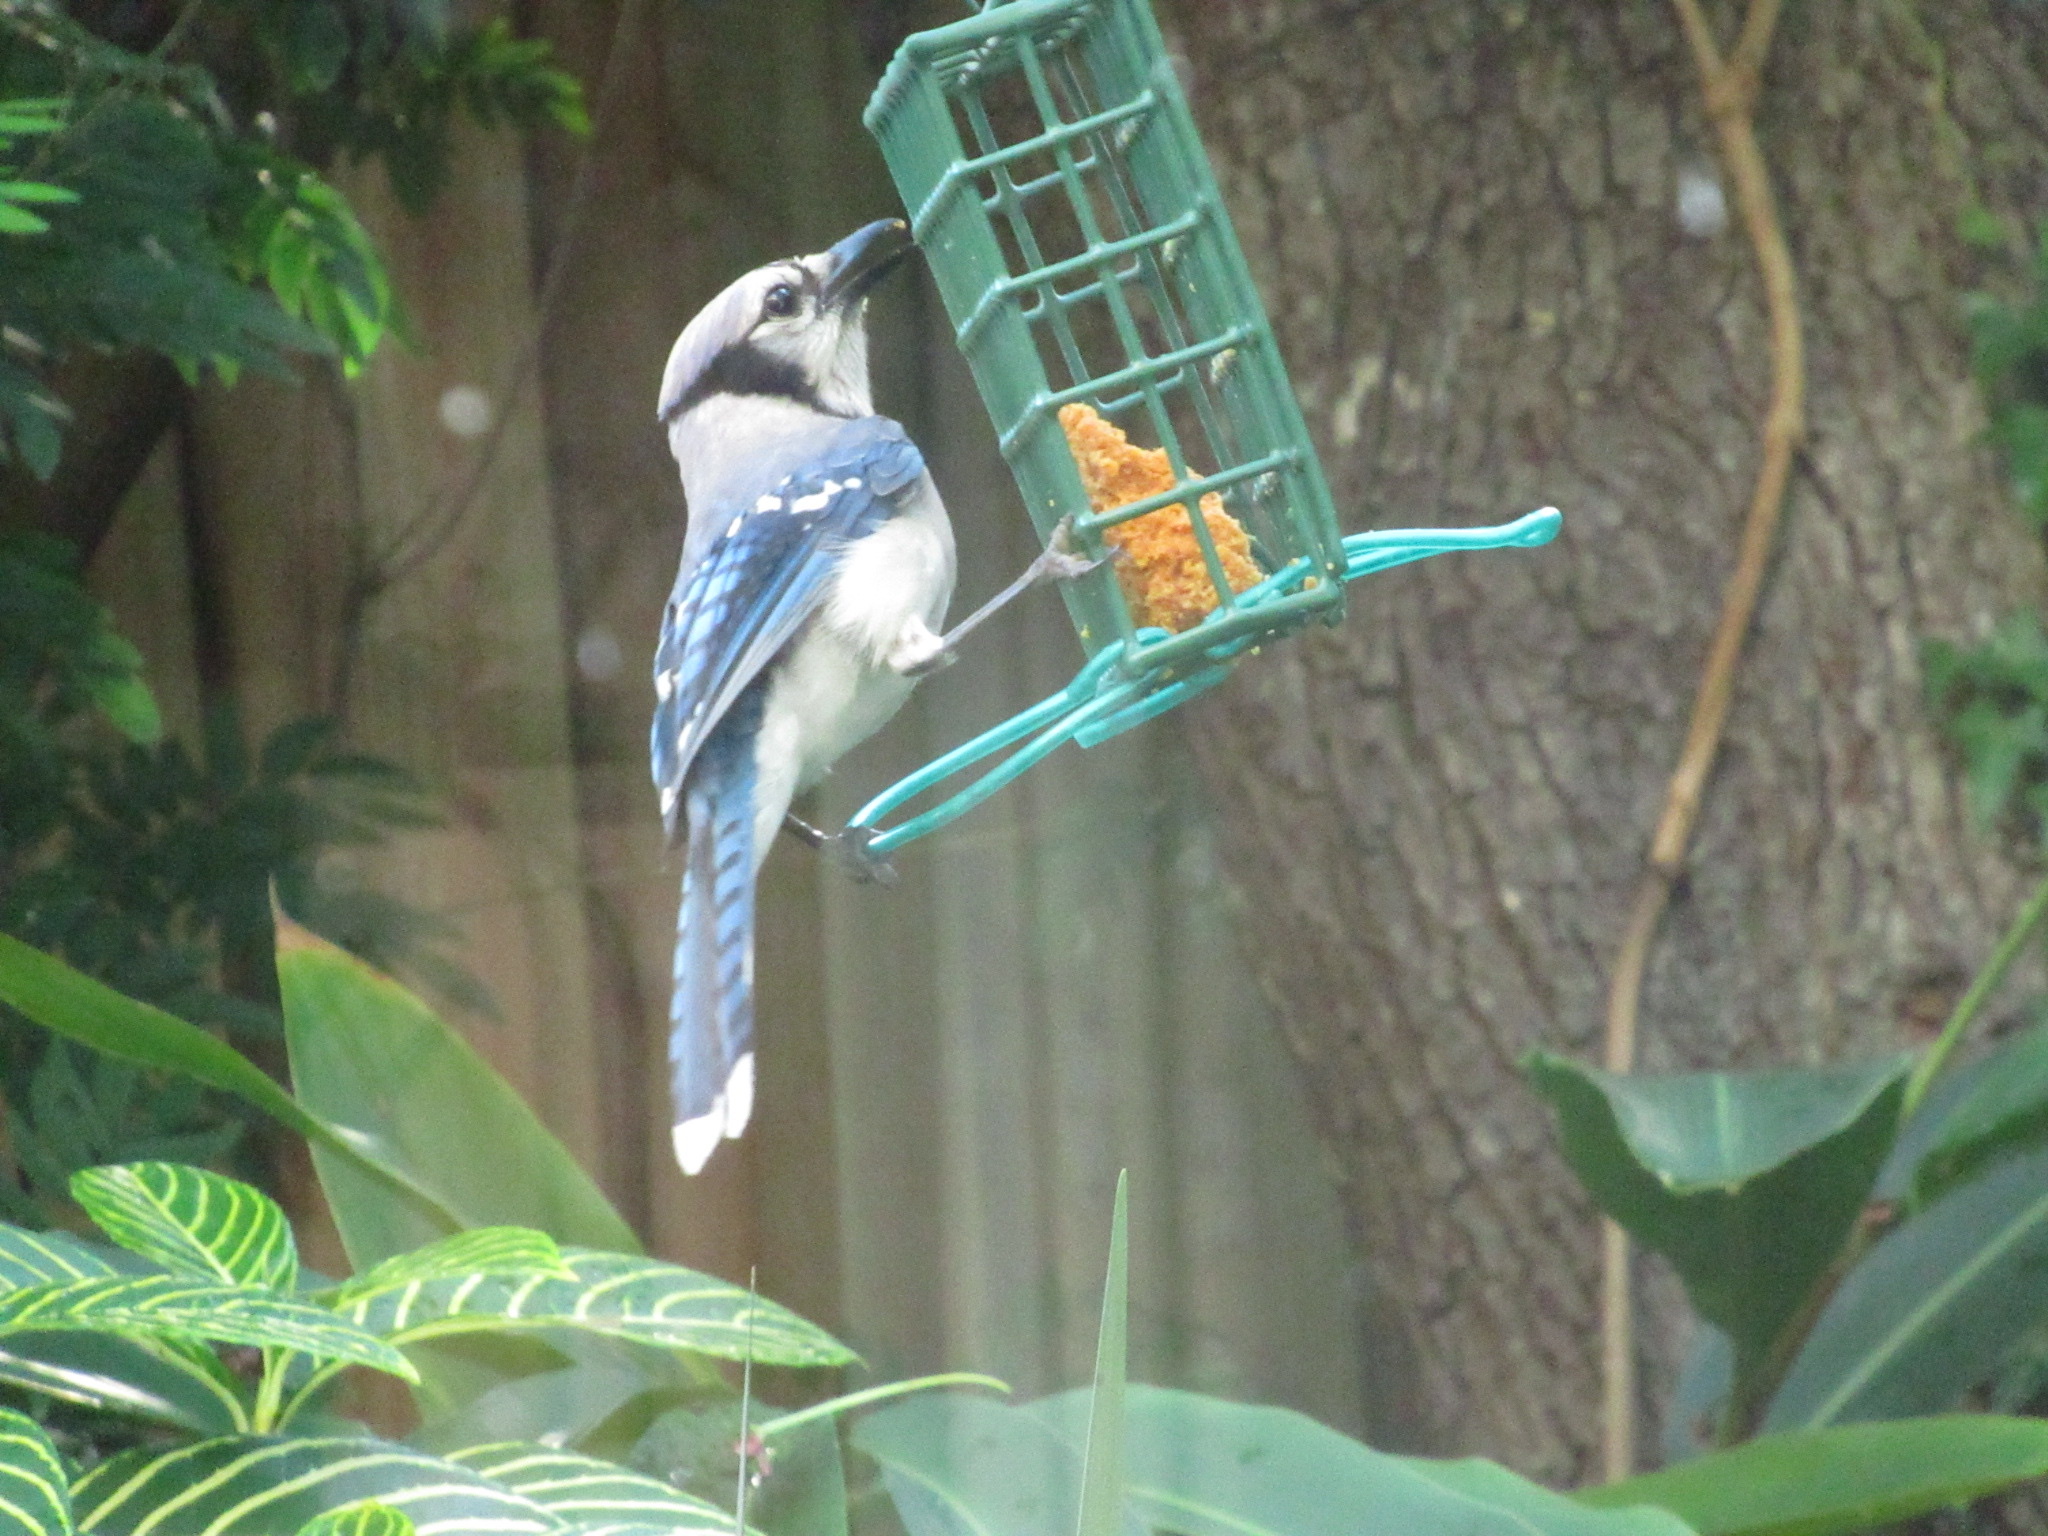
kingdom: Animalia
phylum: Chordata
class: Aves
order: Passeriformes
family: Corvidae
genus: Cyanocitta
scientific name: Cyanocitta cristata
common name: Blue jay
